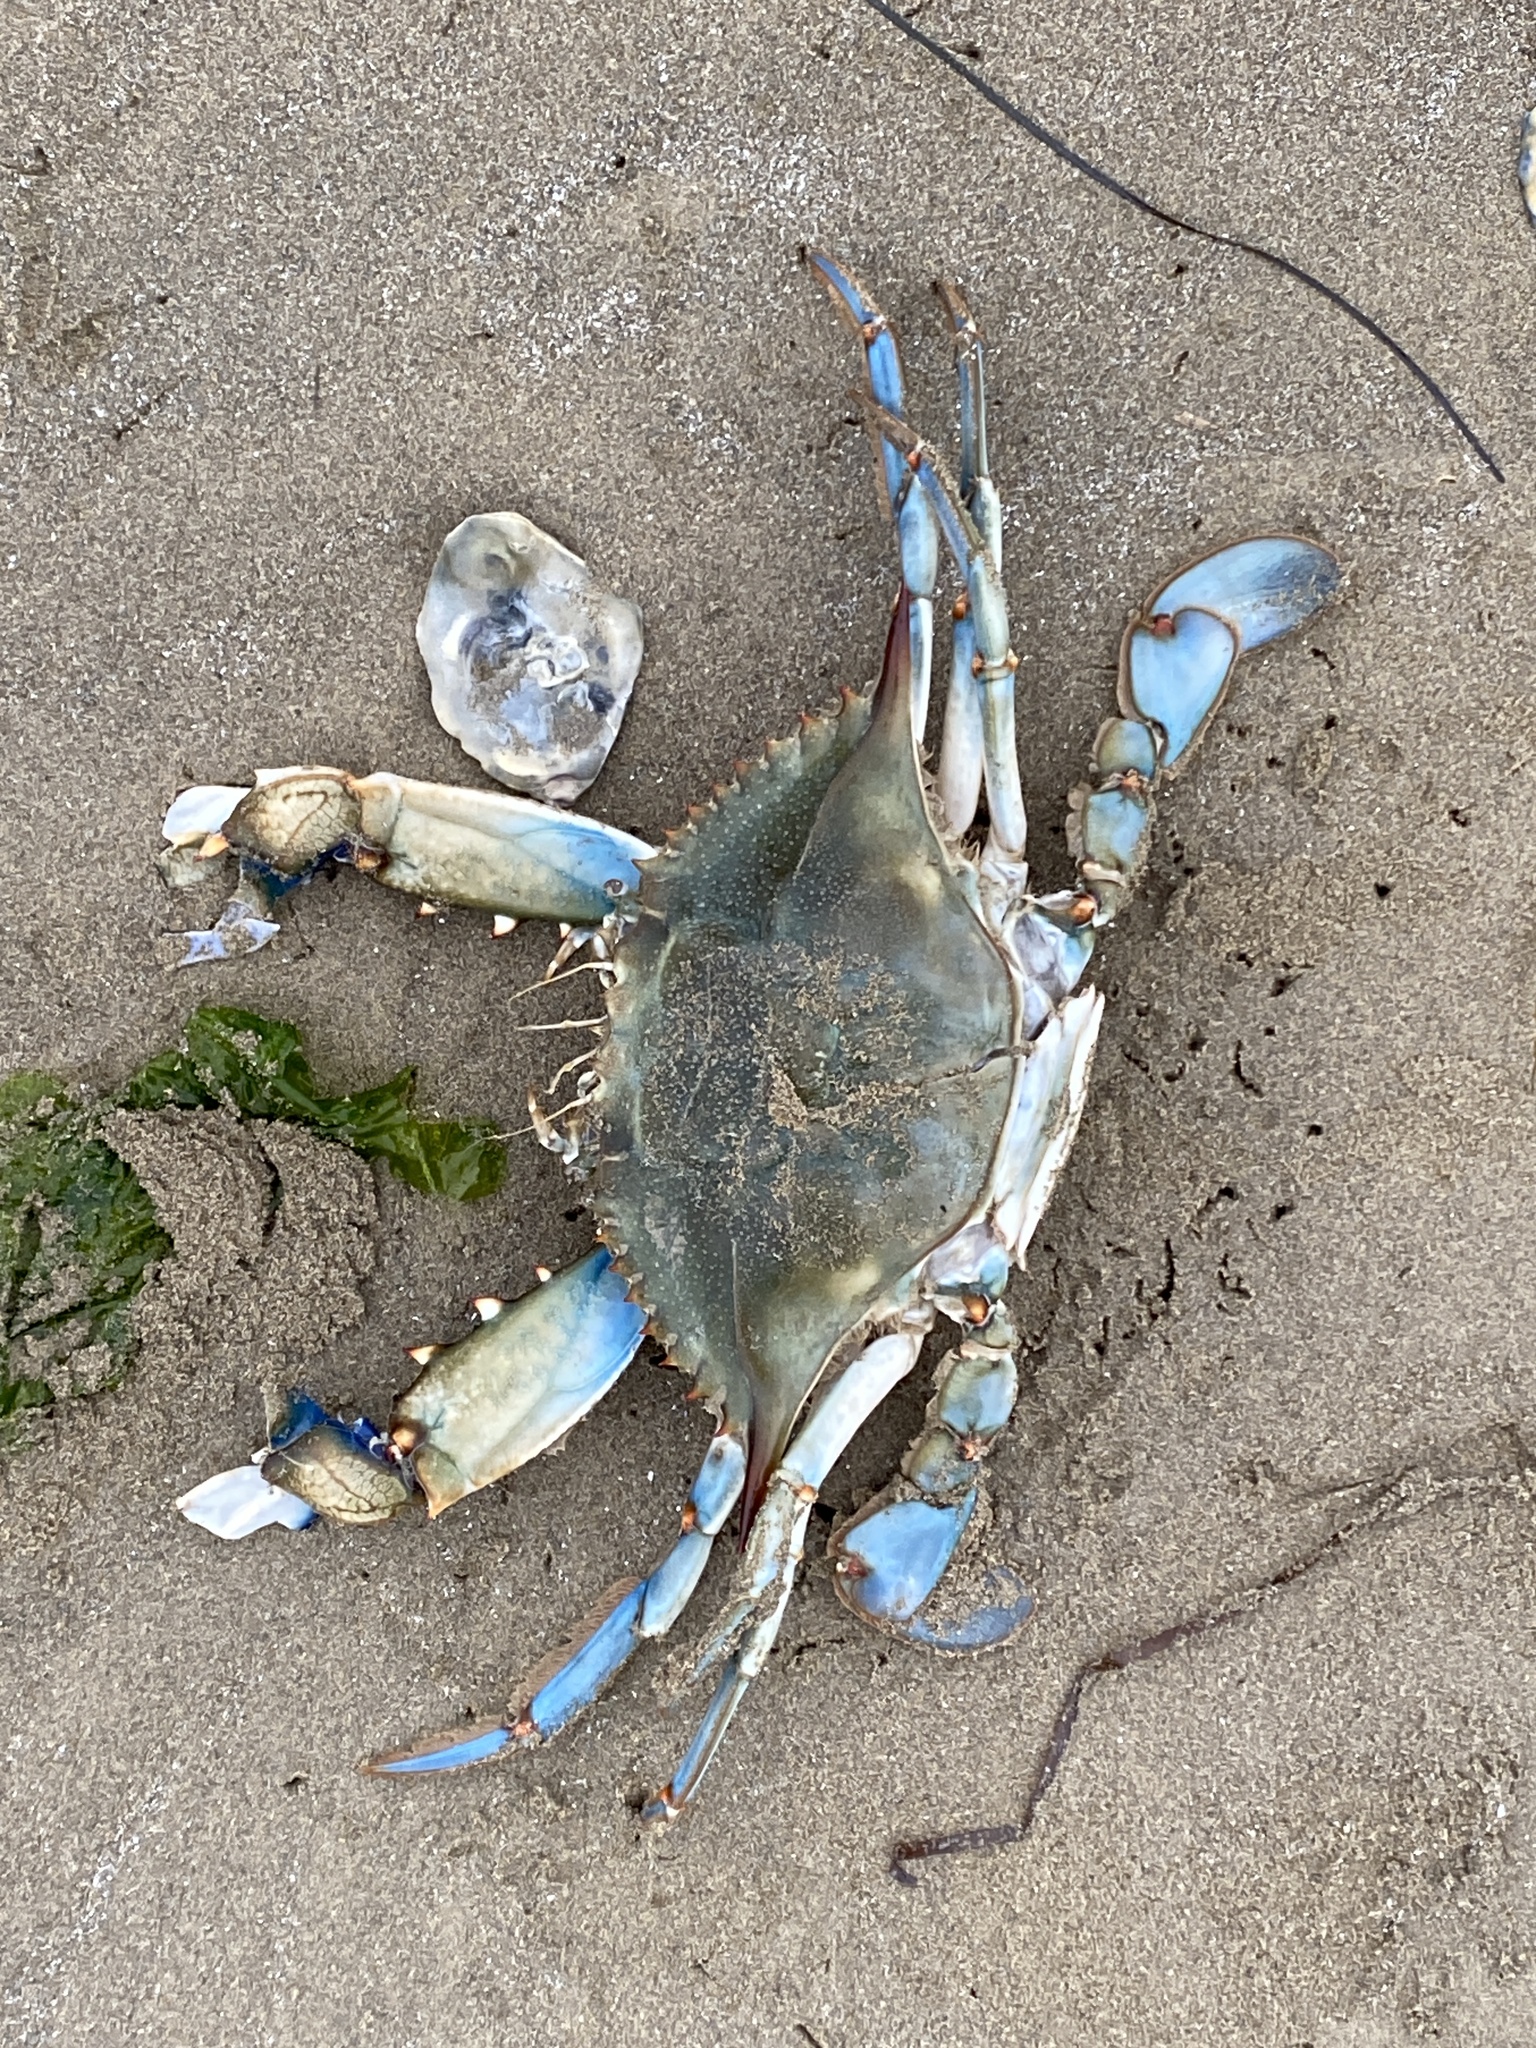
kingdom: Animalia
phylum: Arthropoda
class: Malacostraca
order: Decapoda
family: Portunidae
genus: Callinectes
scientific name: Callinectes sapidus
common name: Blue crab
